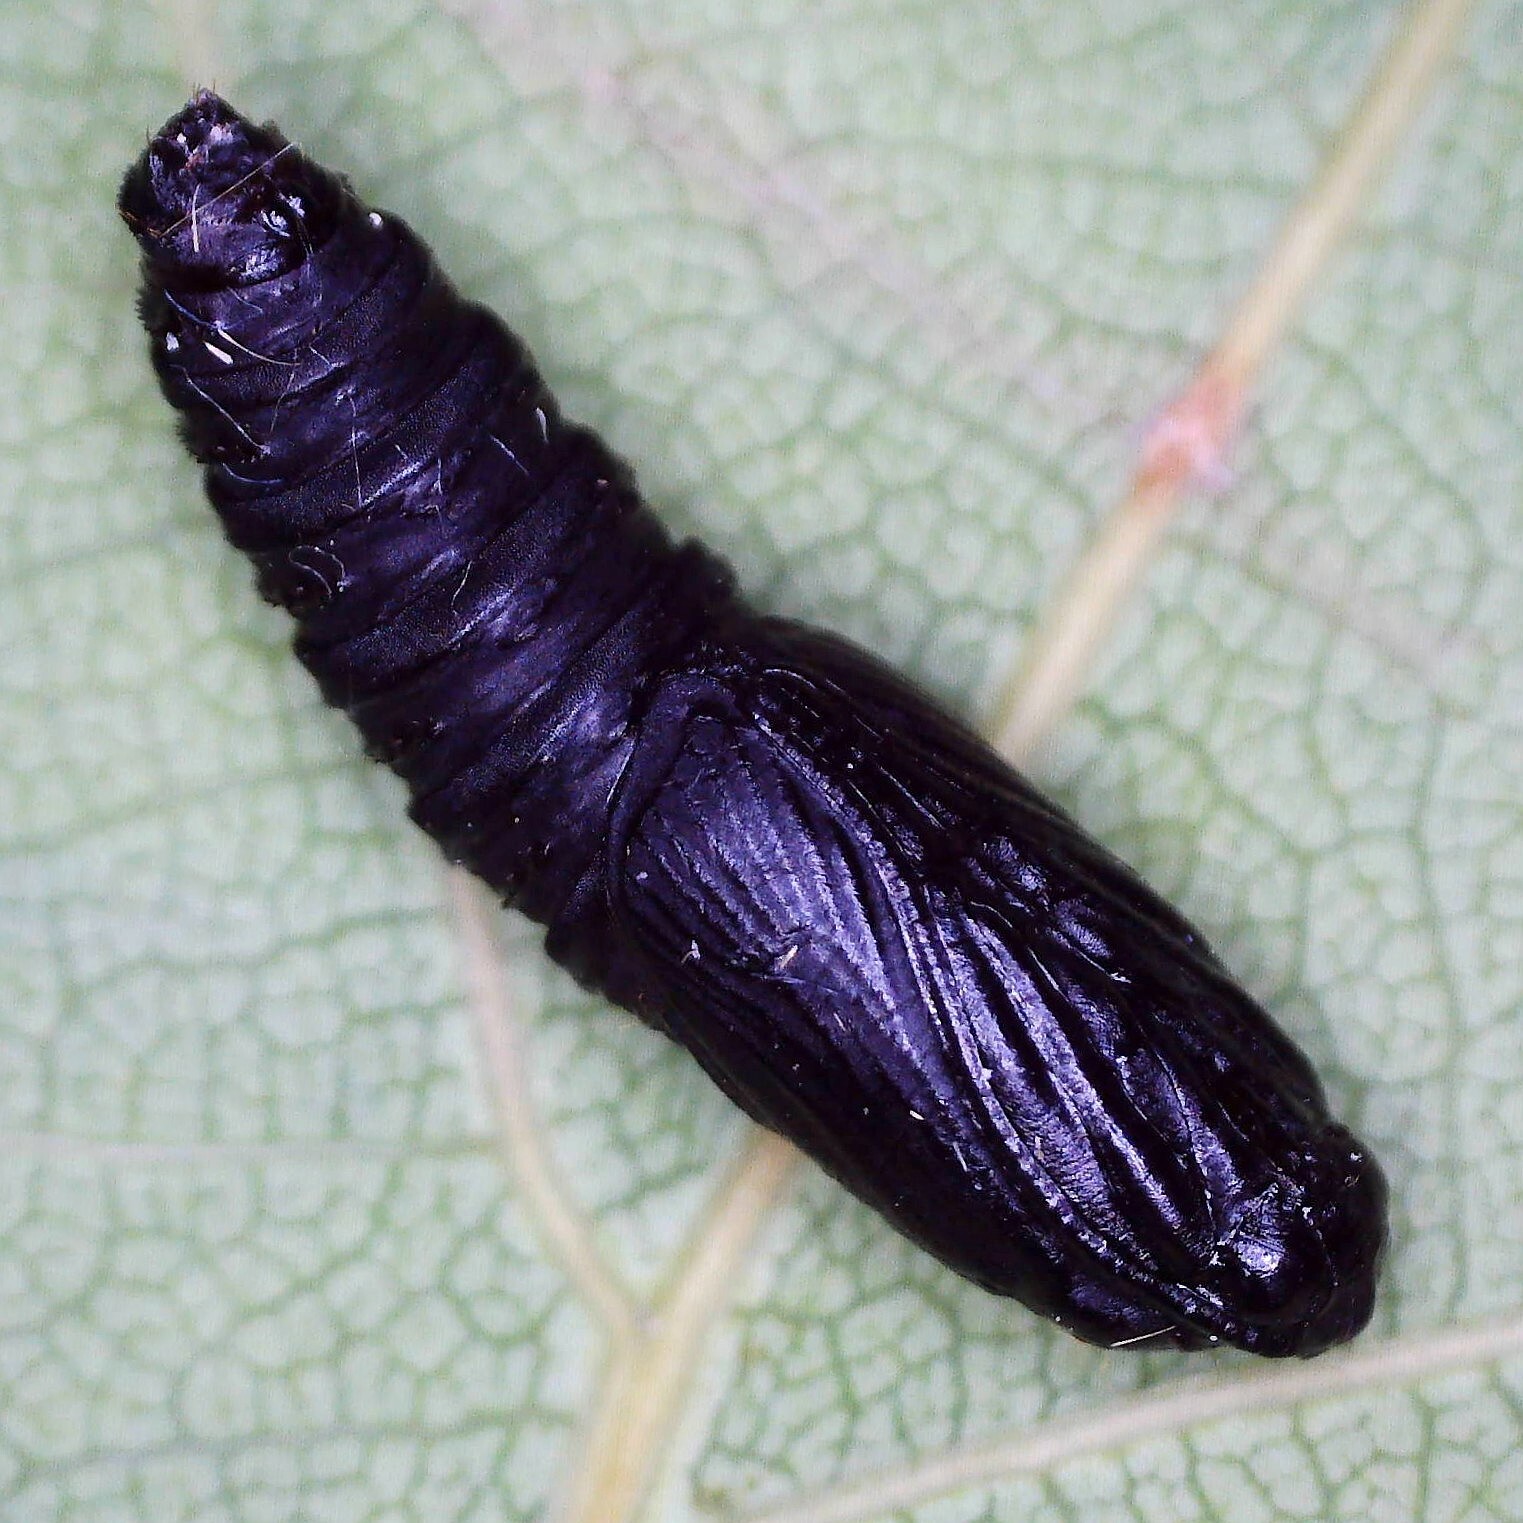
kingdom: Animalia
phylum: Arthropoda
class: Insecta
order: Lepidoptera
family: Tortricidae
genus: Tortrix
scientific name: Tortrix viridana
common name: Green oak tortrix
